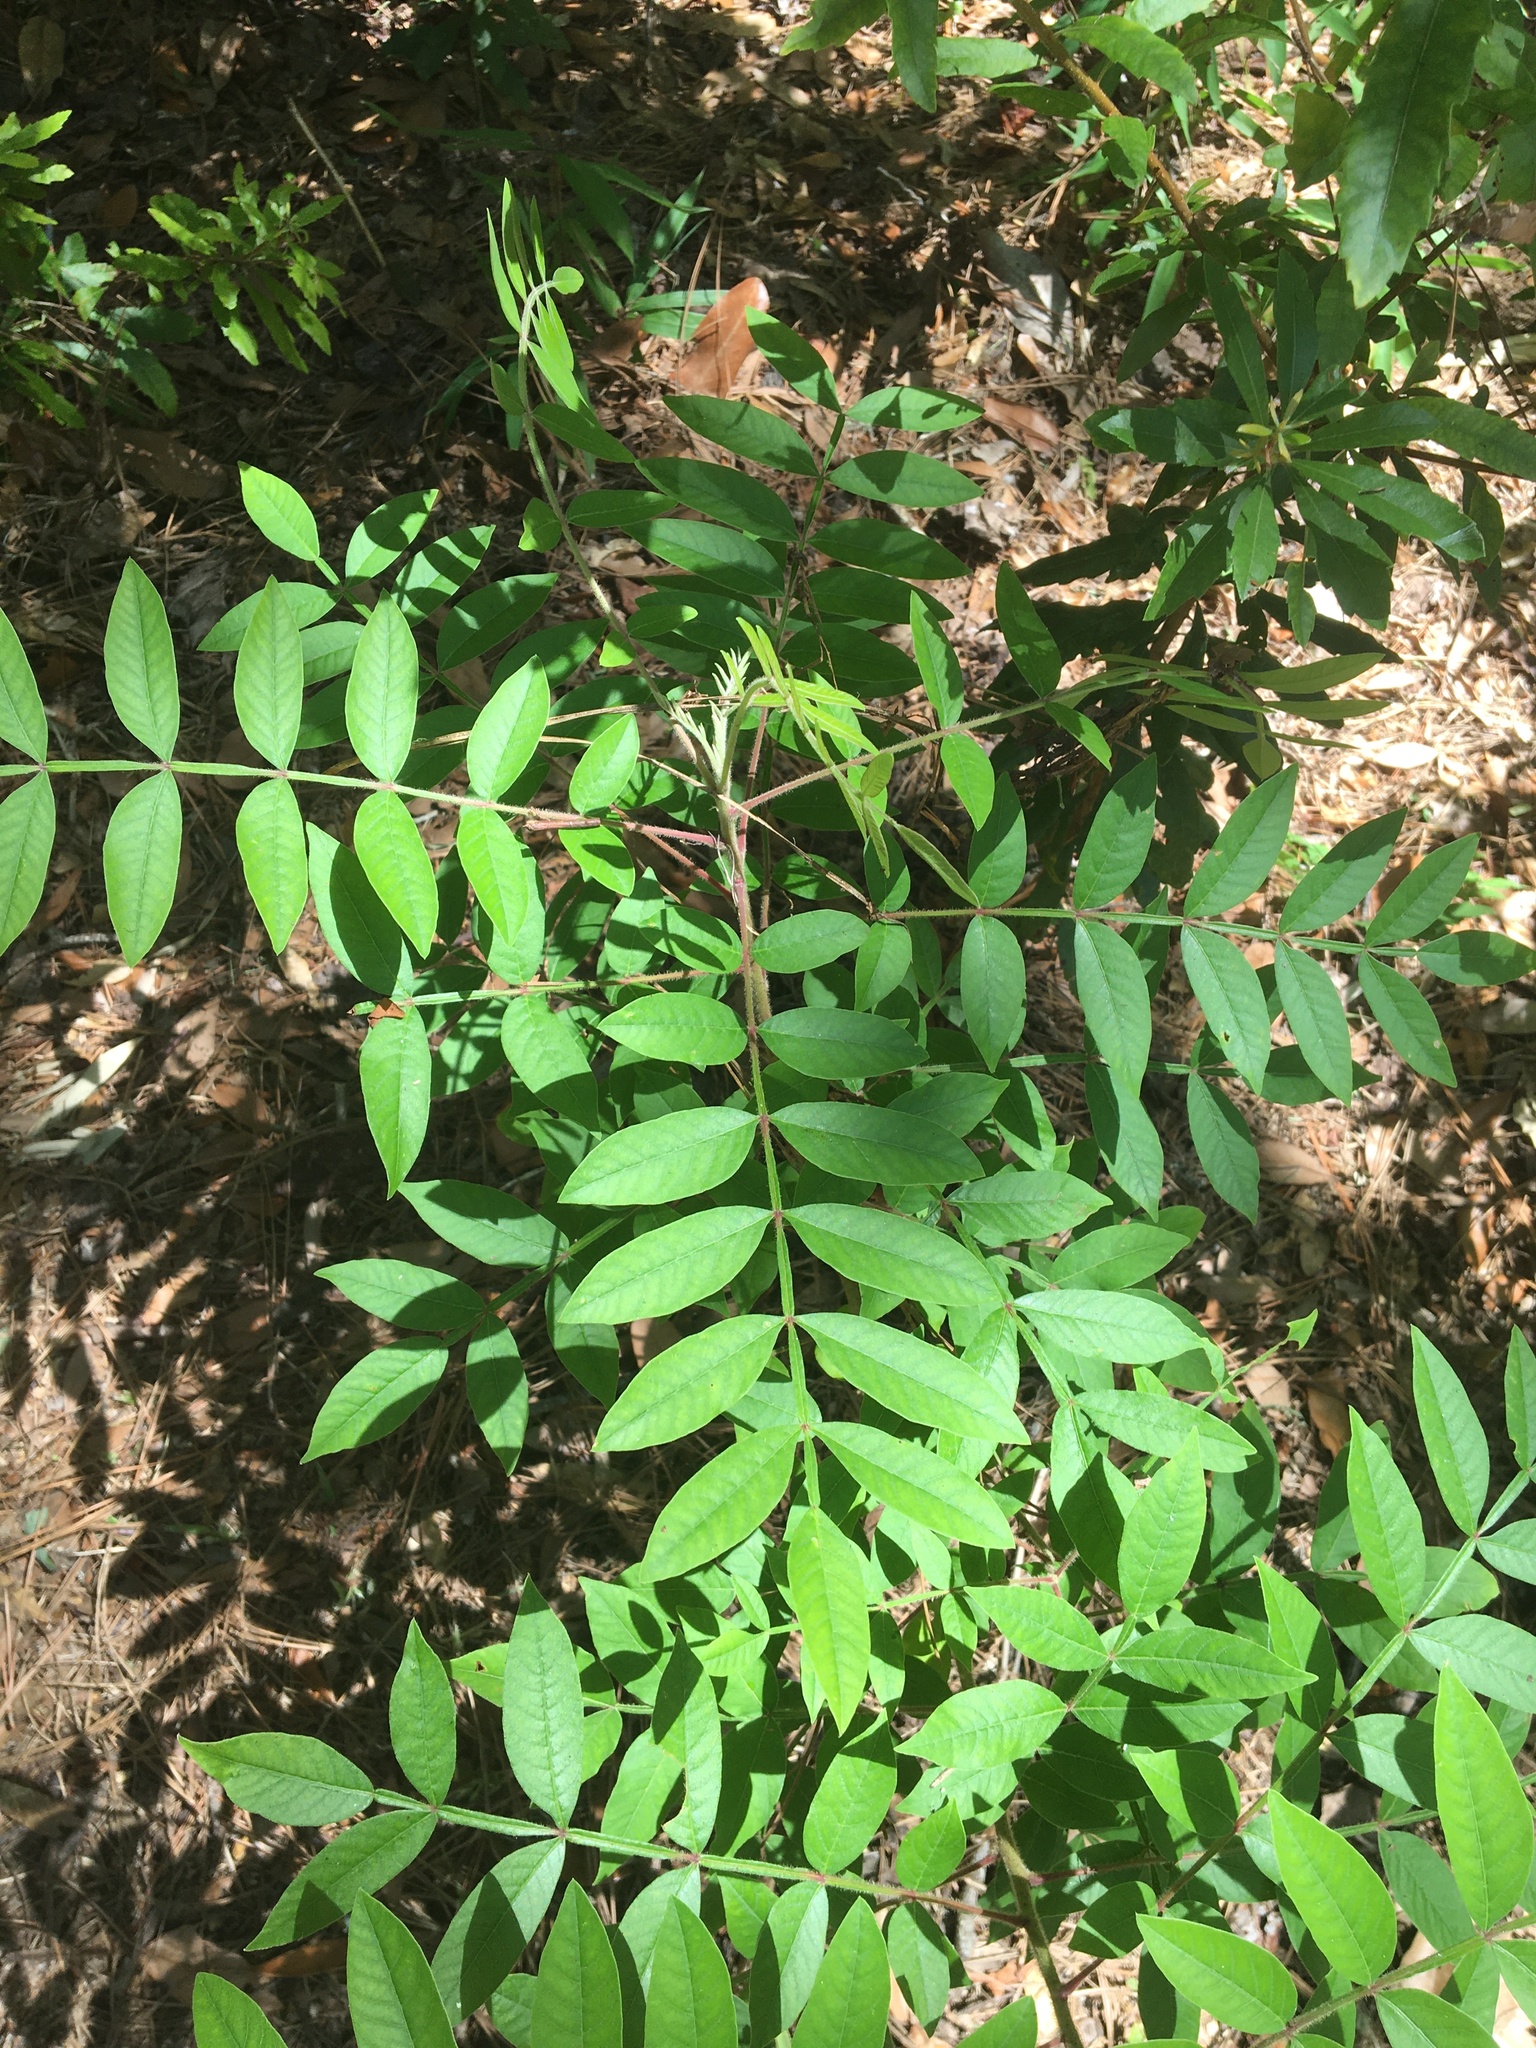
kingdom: Plantae
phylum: Tracheophyta
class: Magnoliopsida
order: Sapindales
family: Anacardiaceae
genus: Rhus
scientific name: Rhus copallina
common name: Shining sumac
